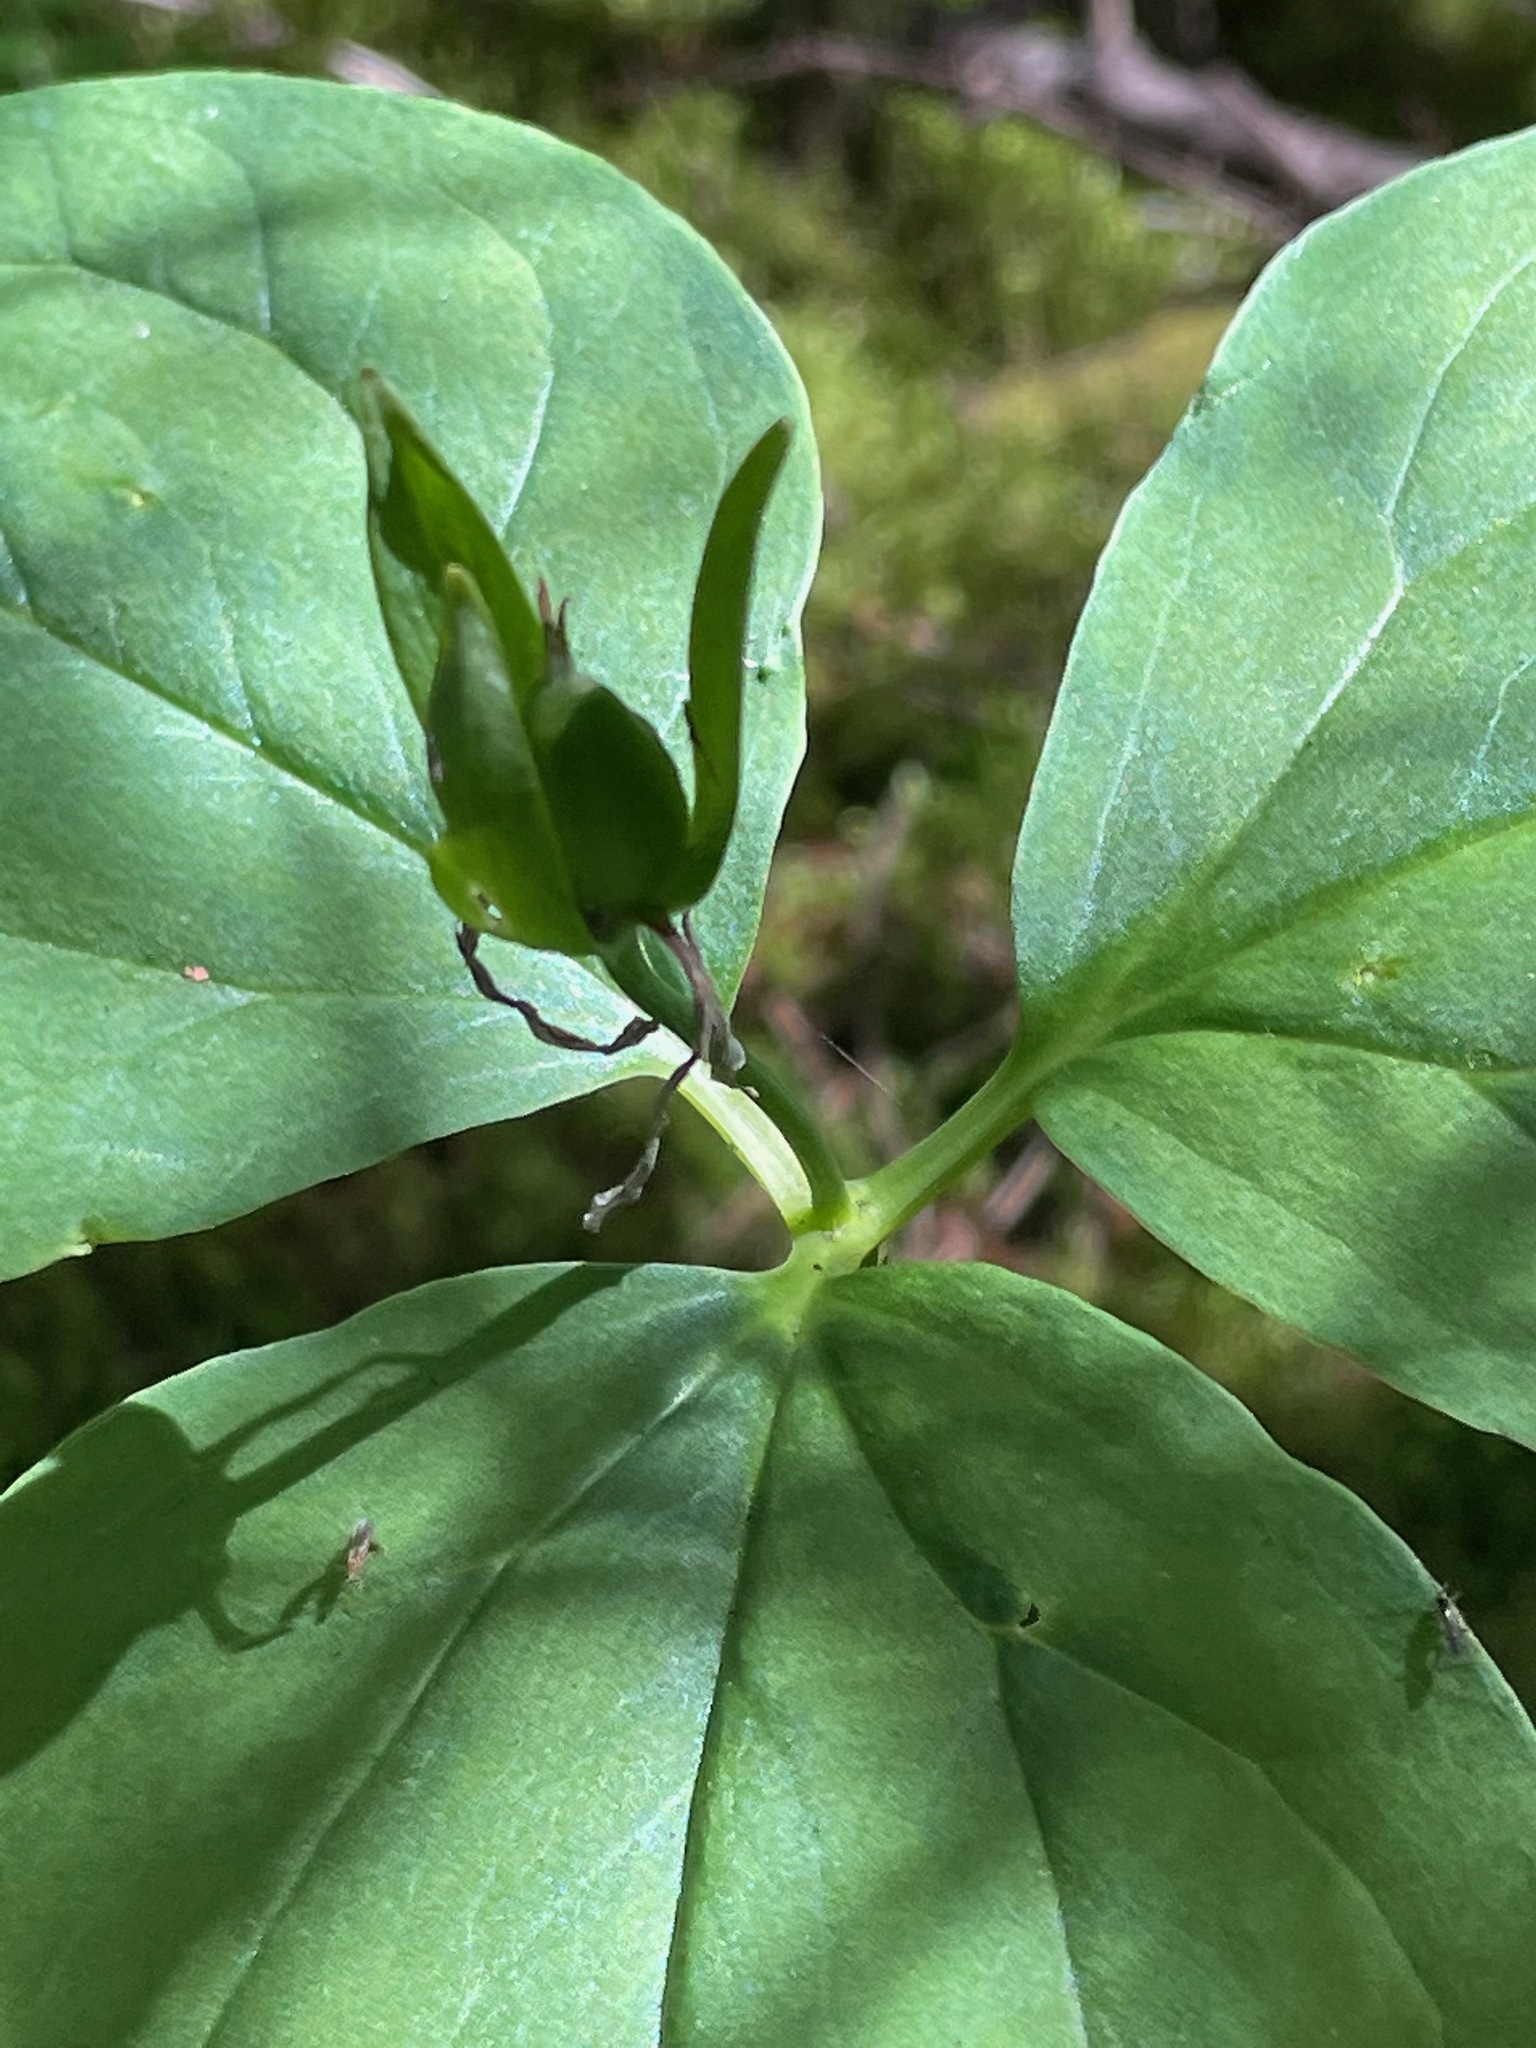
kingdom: Plantae
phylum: Tracheophyta
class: Liliopsida
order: Liliales
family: Melanthiaceae
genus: Trillium
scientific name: Trillium undulatum
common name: Paint trillium
